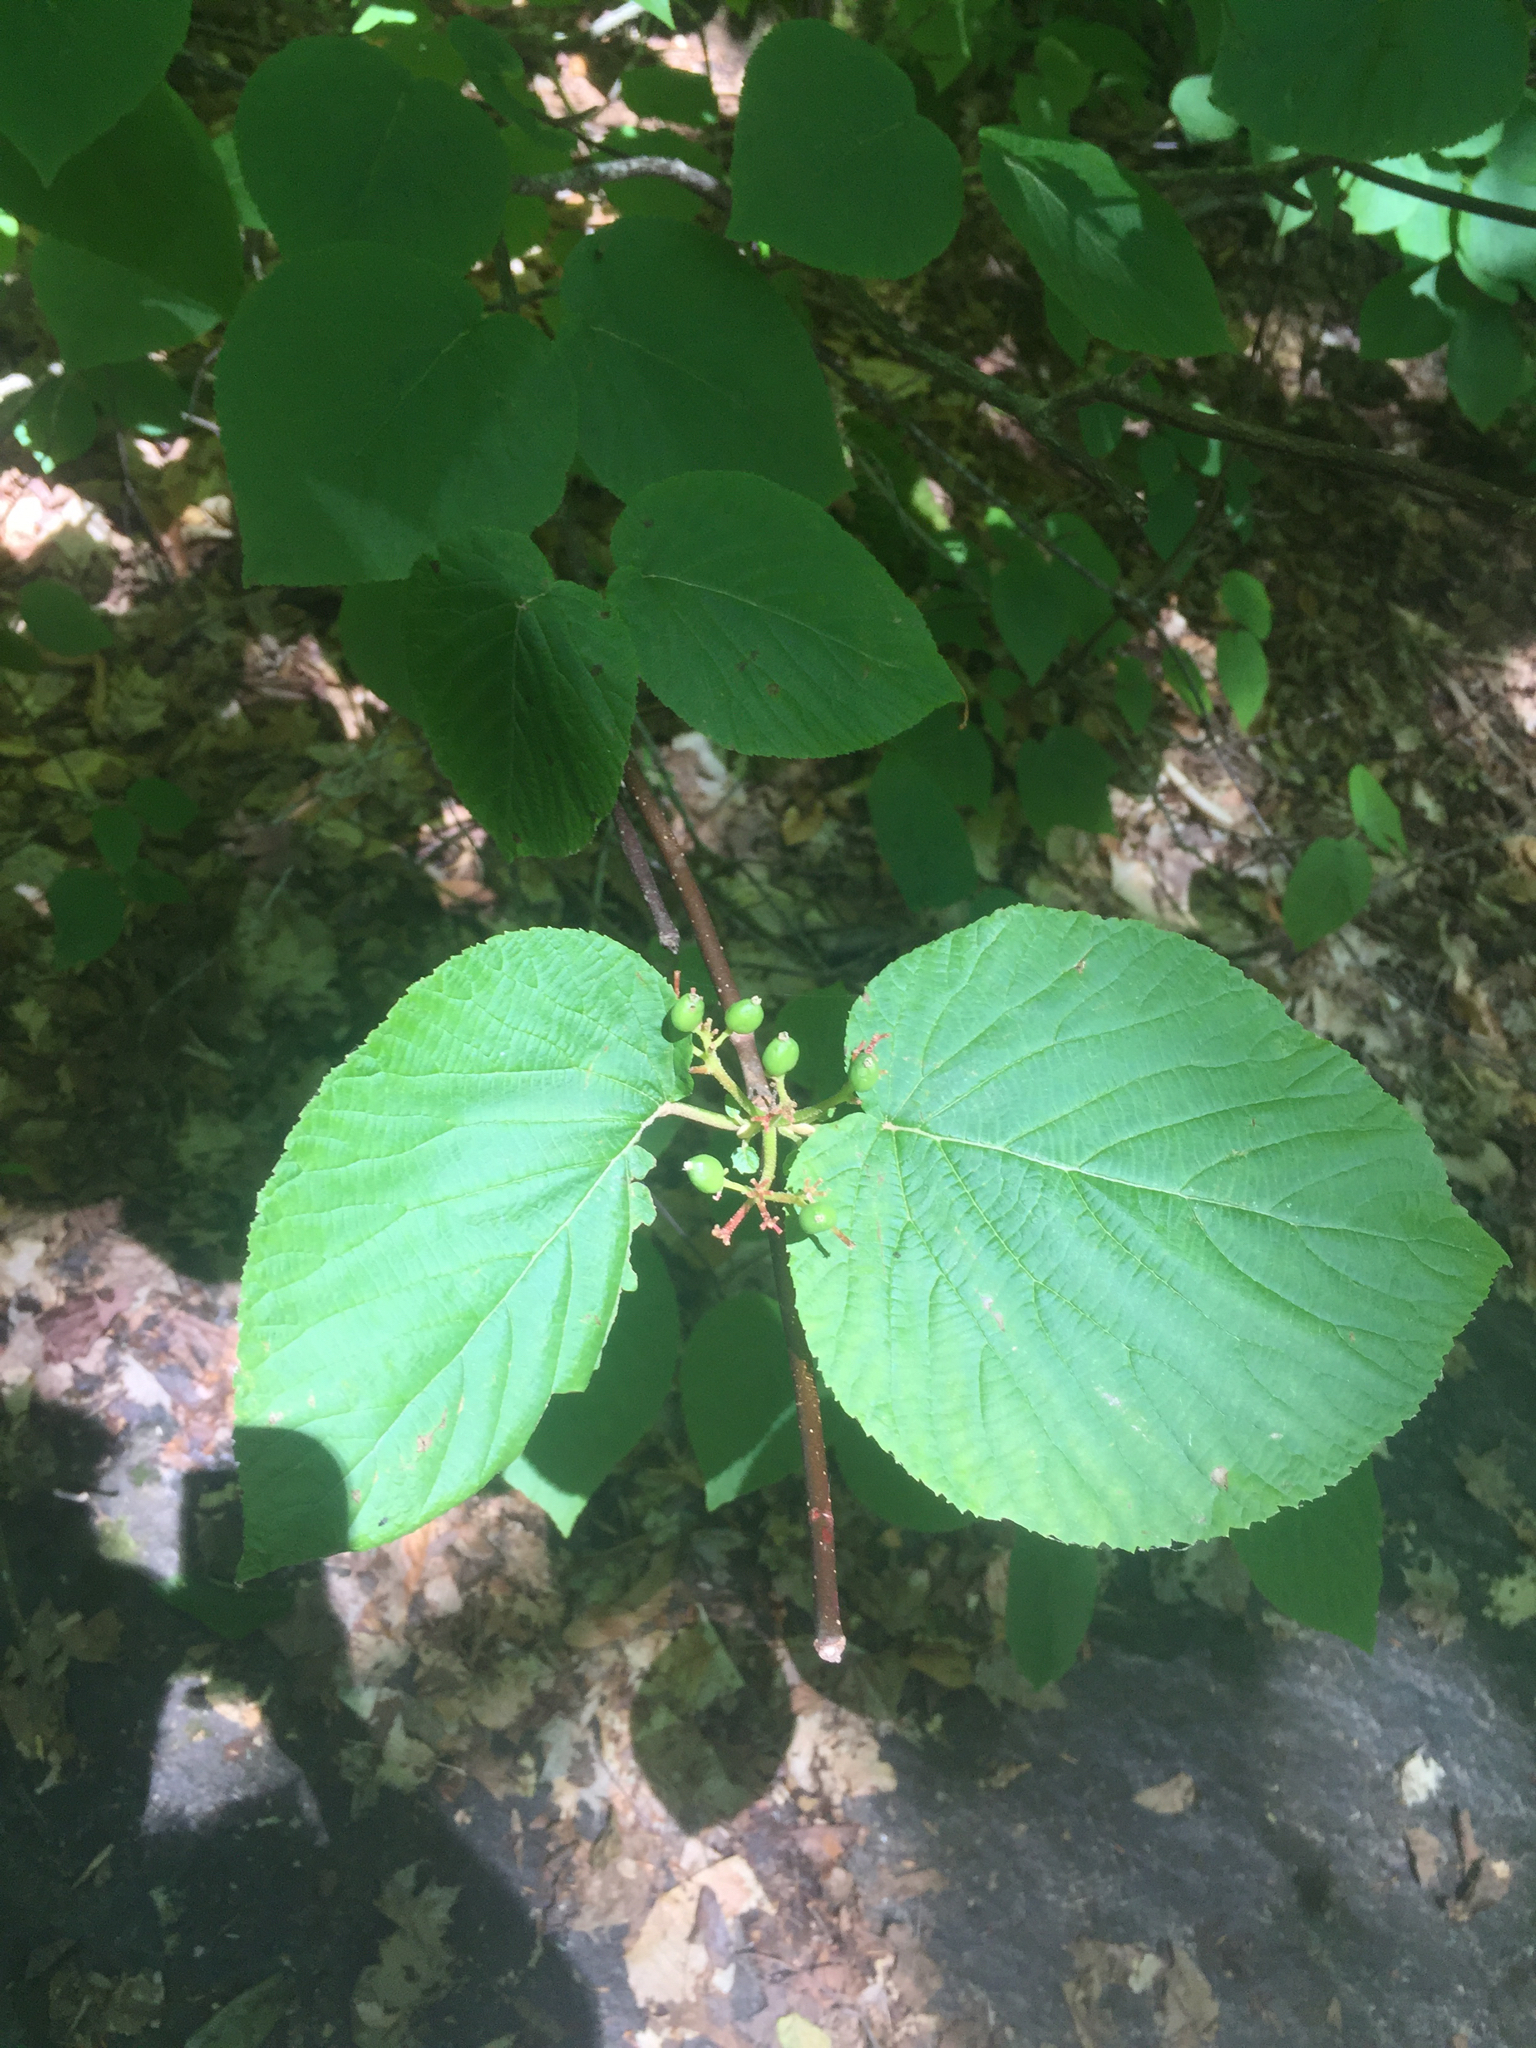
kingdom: Plantae
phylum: Tracheophyta
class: Magnoliopsida
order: Dipsacales
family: Viburnaceae
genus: Viburnum
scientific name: Viburnum lantanoides
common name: Hobblebush
